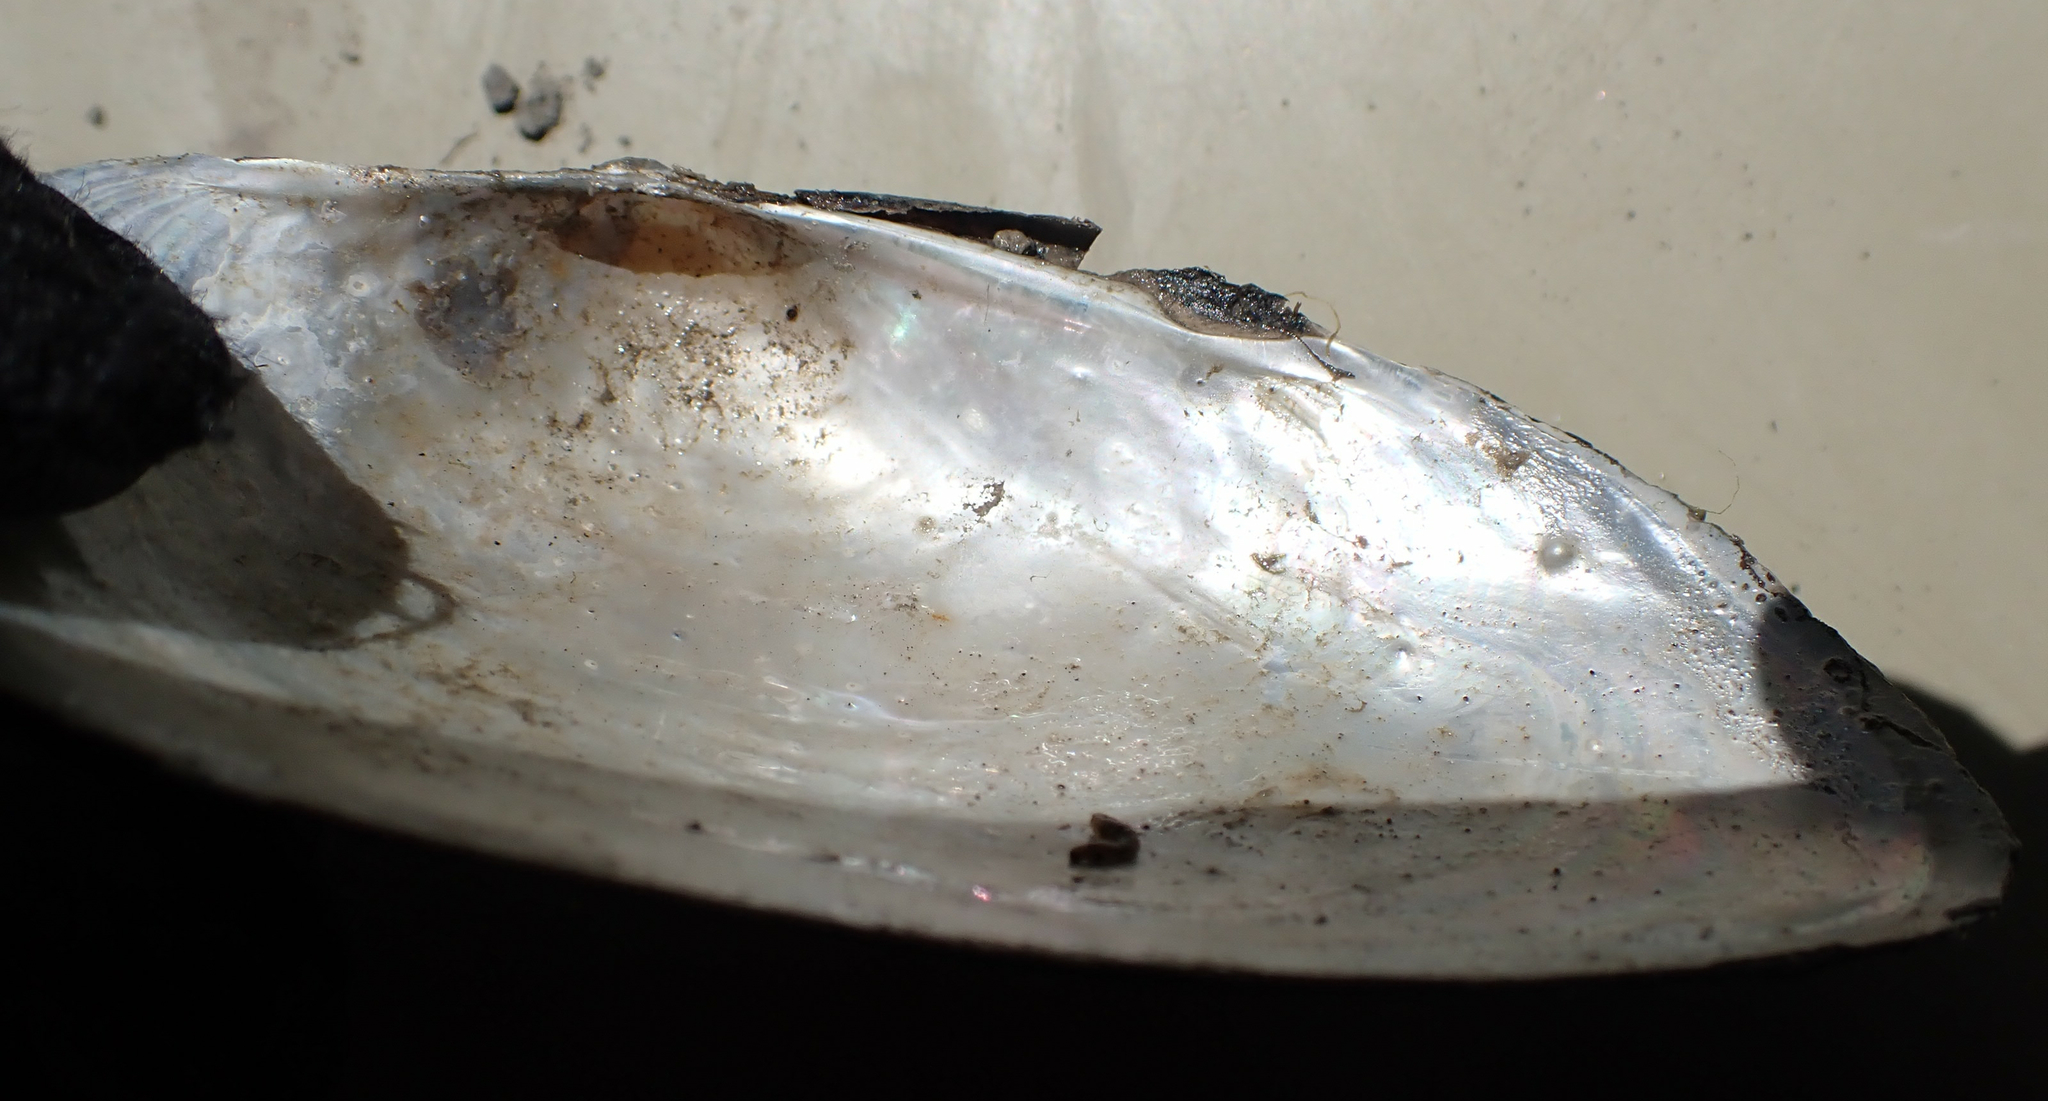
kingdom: Animalia
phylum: Mollusca
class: Bivalvia
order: Unionida
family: Unionidae
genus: Pyganodon
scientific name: Pyganodon grandis
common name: Giant floater
